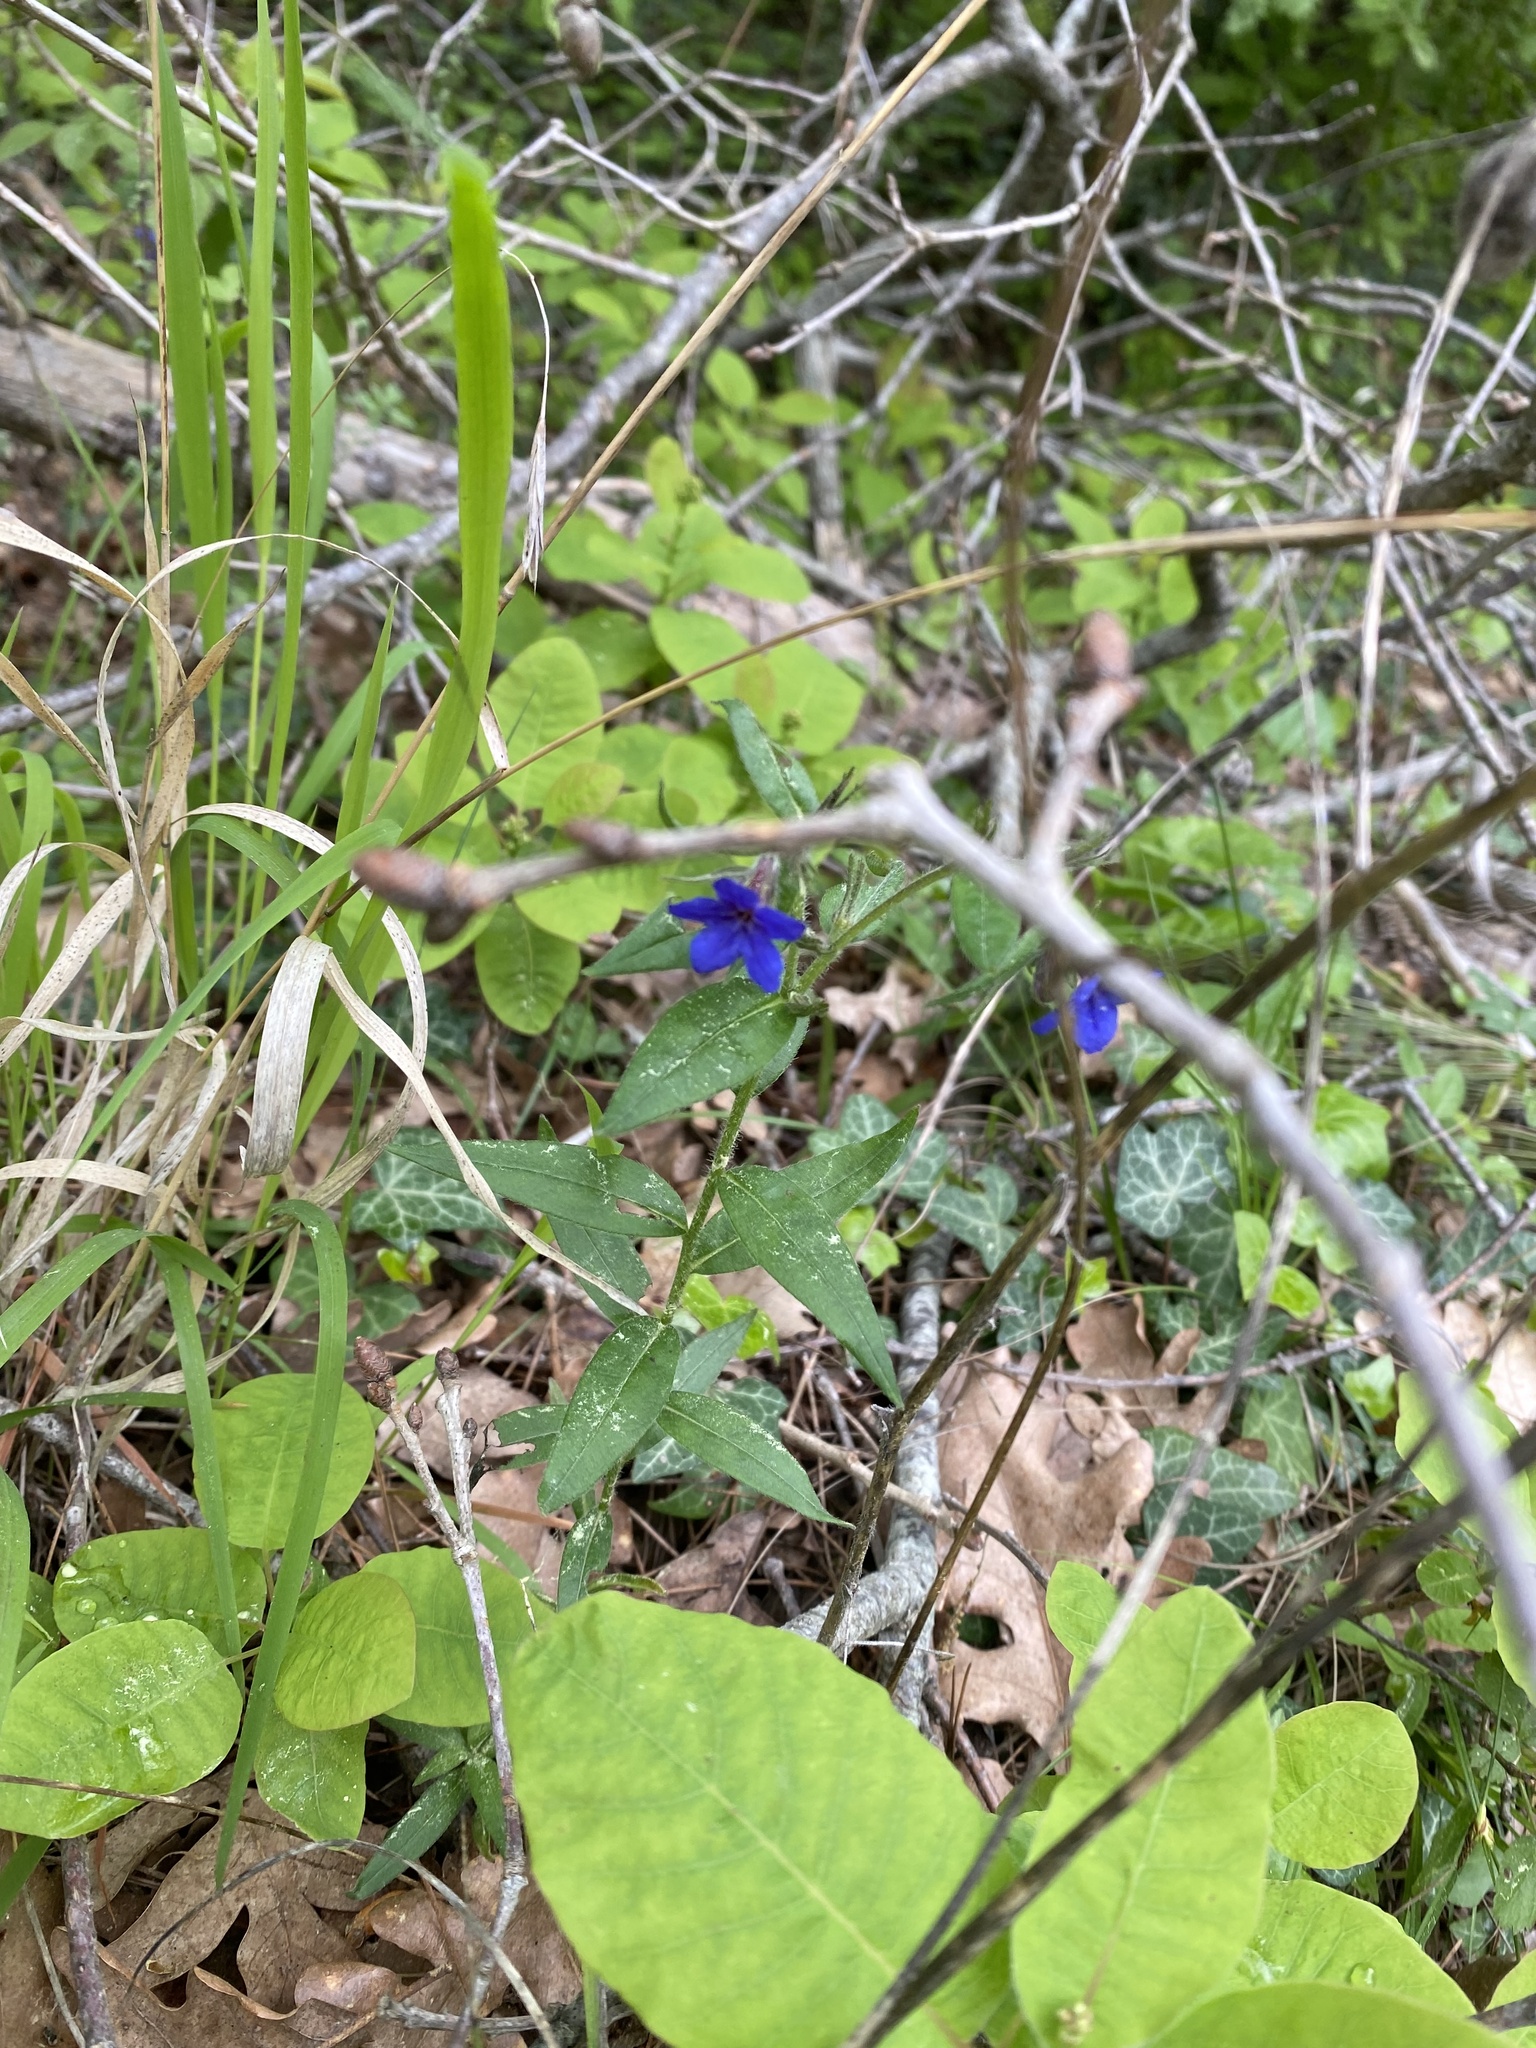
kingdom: Plantae
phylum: Tracheophyta
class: Magnoliopsida
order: Boraginales
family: Boraginaceae
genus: Aegonychon
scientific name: Aegonychon purpurocaeruleum
